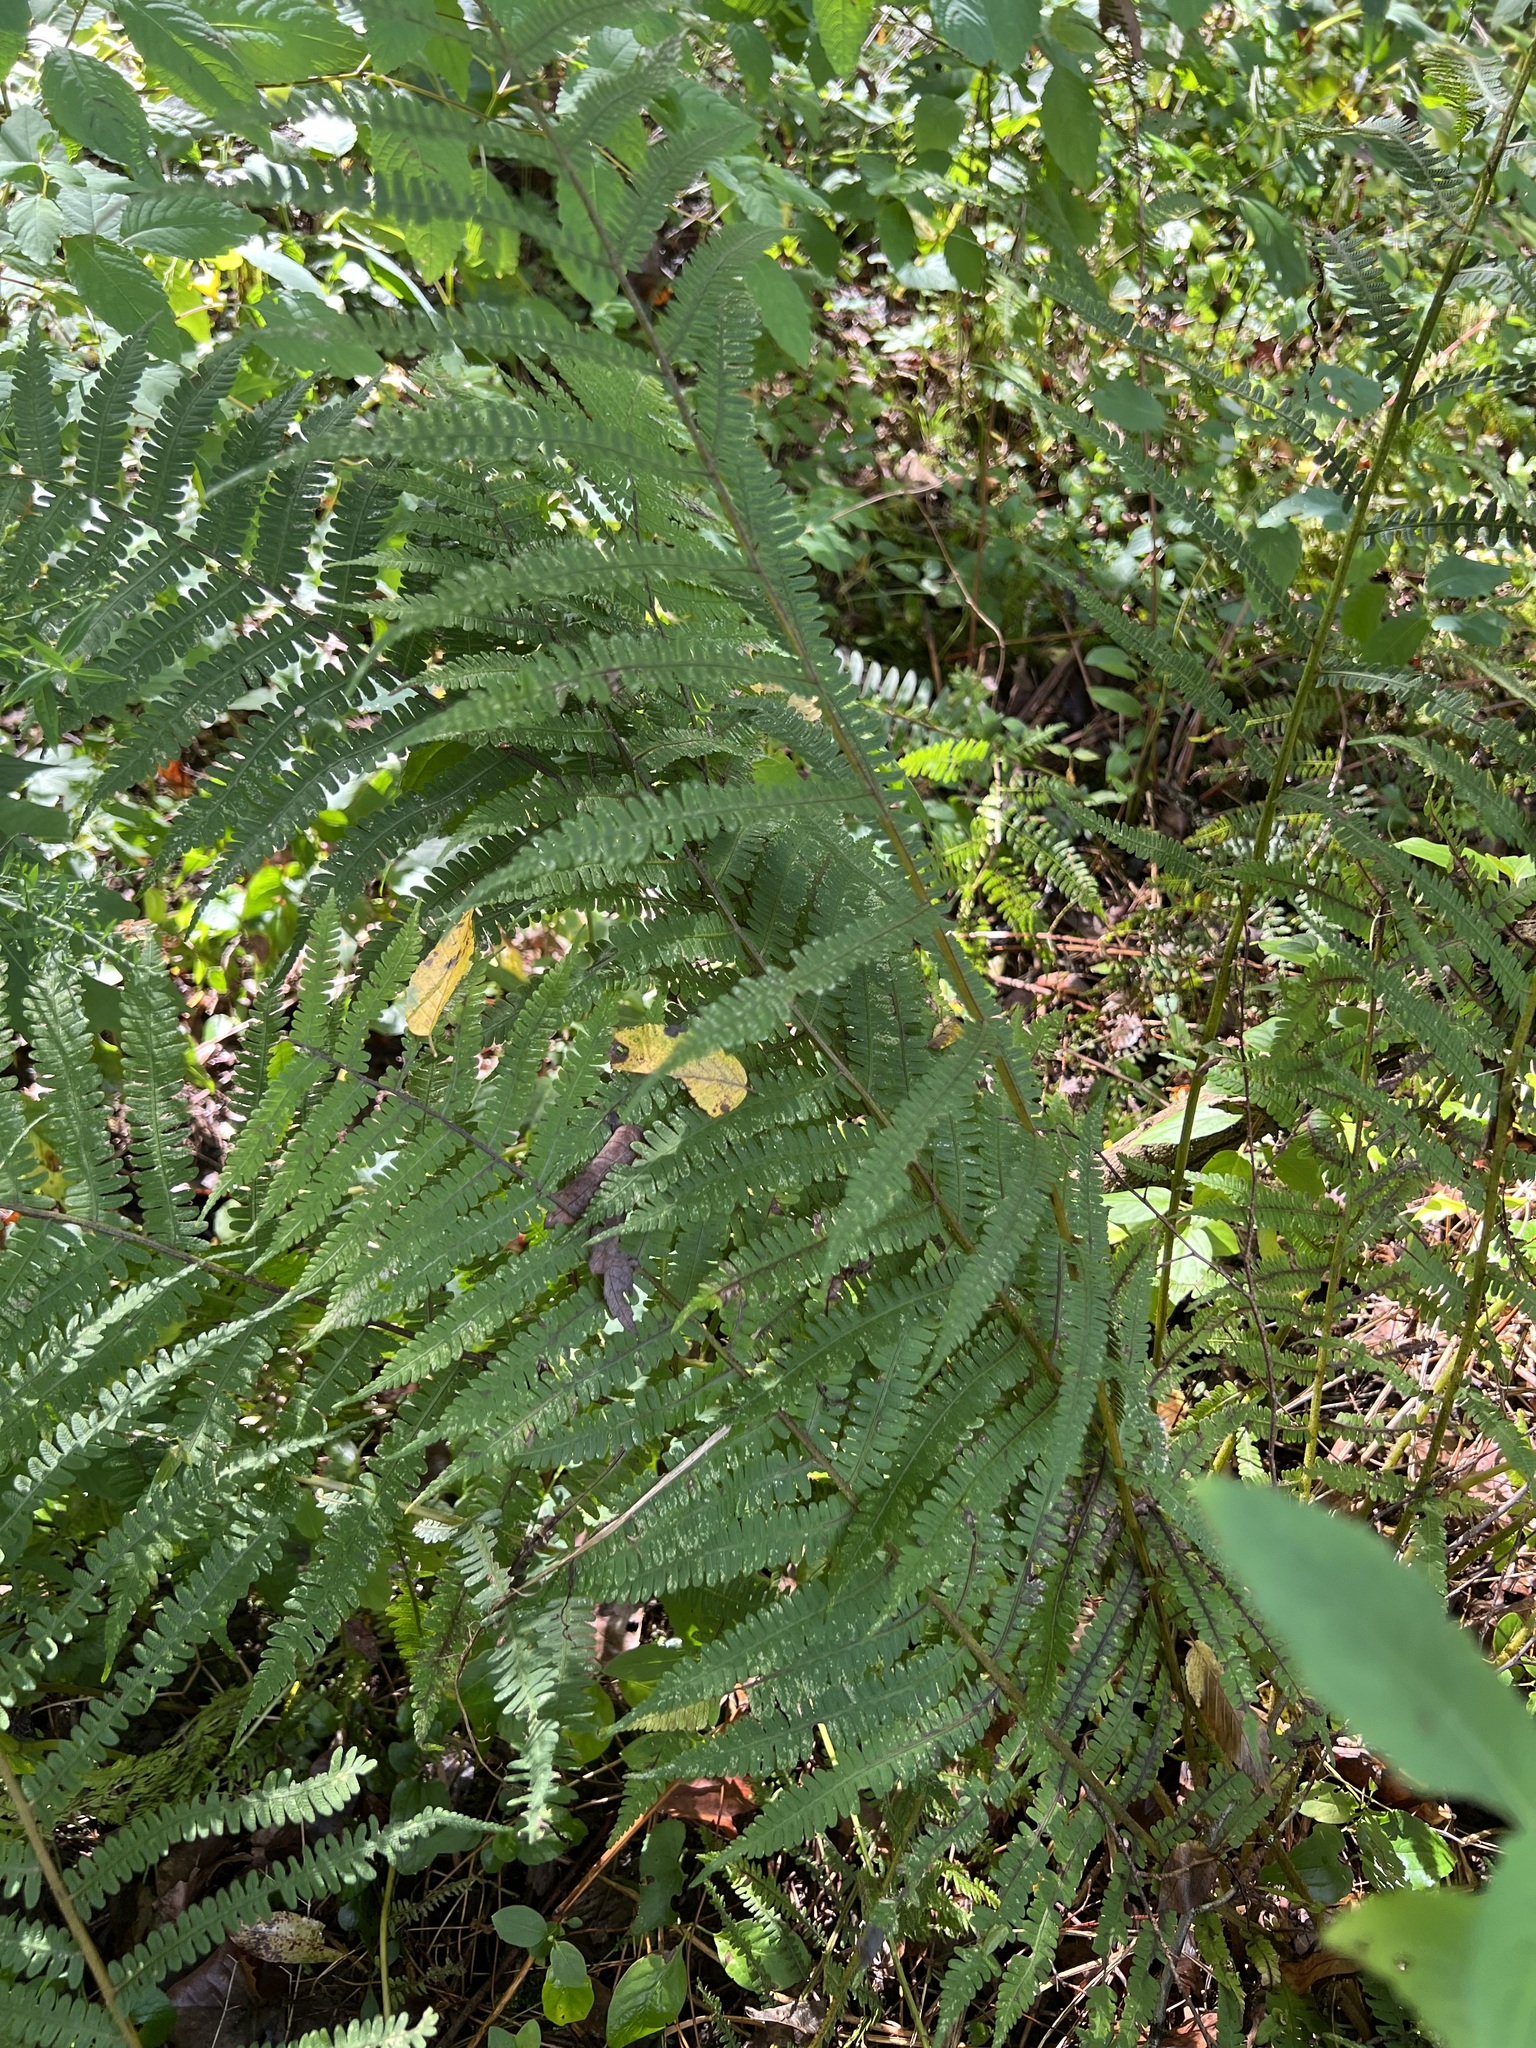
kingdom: Plantae
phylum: Tracheophyta
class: Polypodiopsida
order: Polypodiales
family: Athyriaceae
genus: Deparia
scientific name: Deparia acrostichoides
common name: Silver false spleenwort
